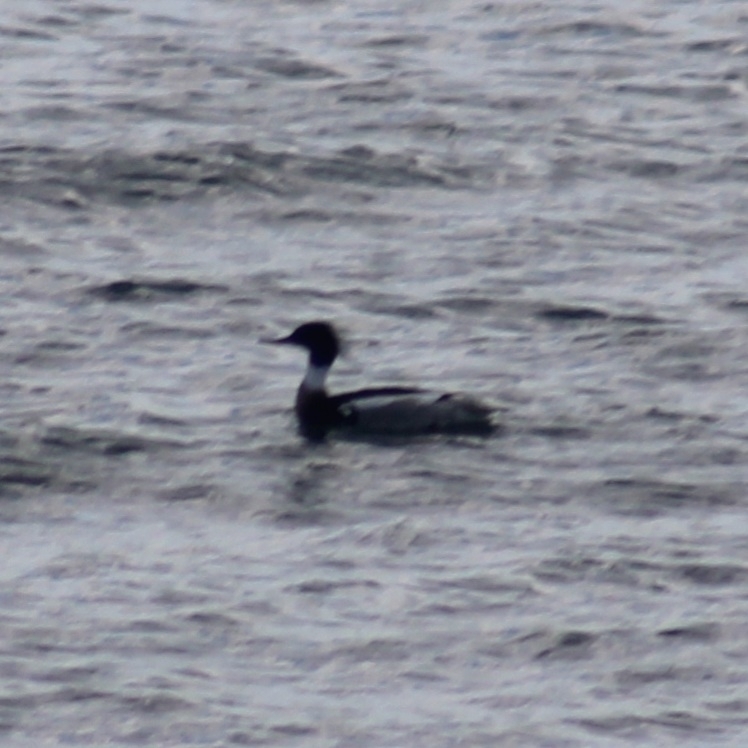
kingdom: Animalia
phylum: Chordata
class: Aves
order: Anseriformes
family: Anatidae
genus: Mergus
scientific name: Mergus serrator
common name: Red-breasted merganser
